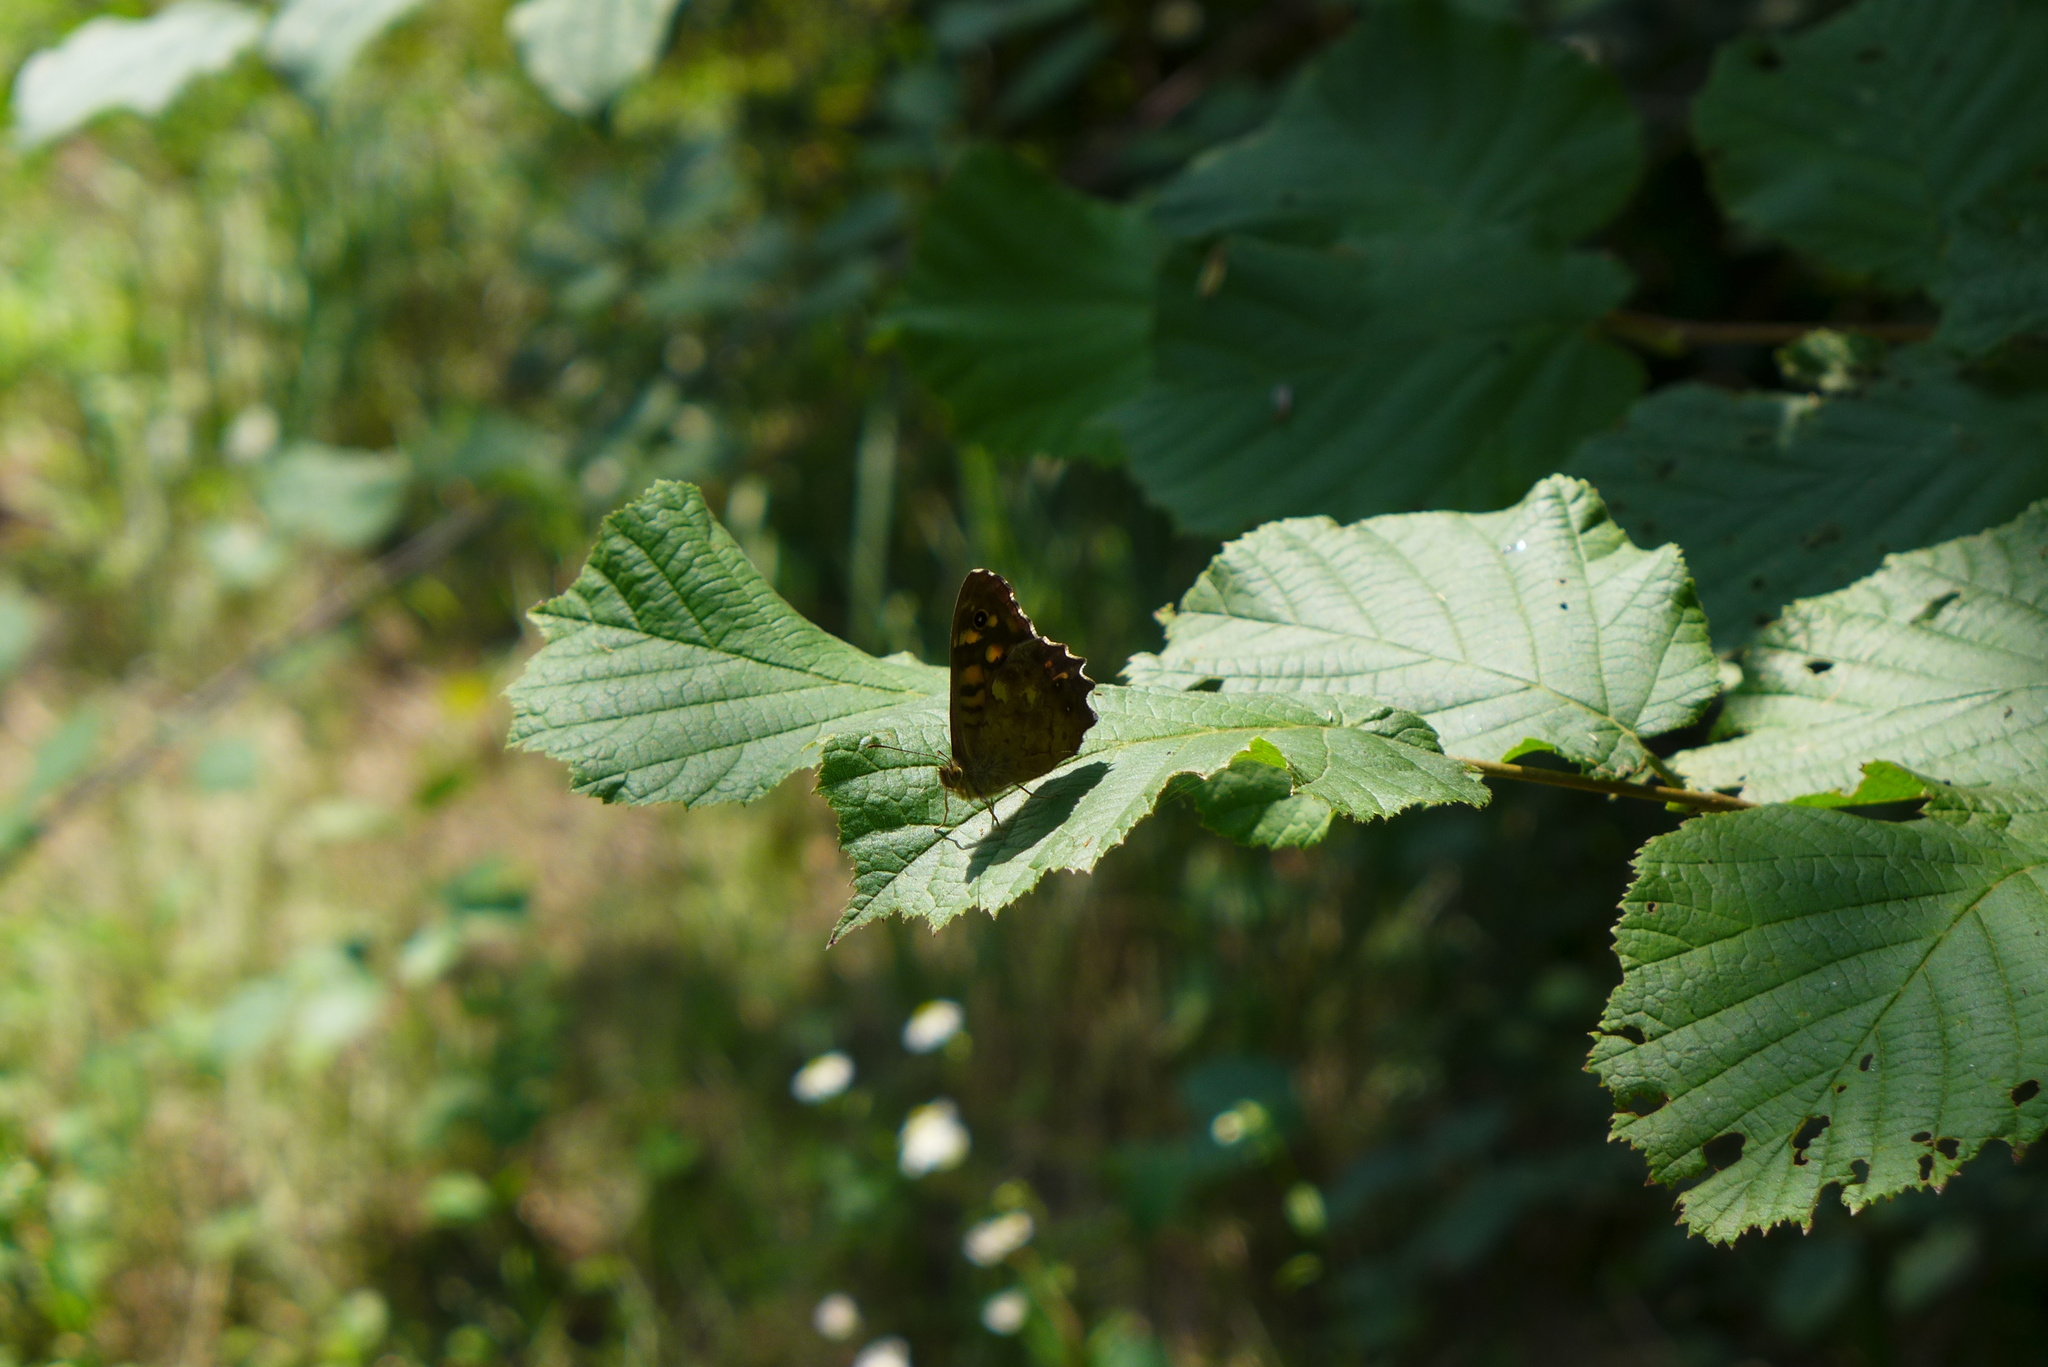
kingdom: Animalia
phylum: Arthropoda
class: Insecta
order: Lepidoptera
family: Nymphalidae
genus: Pararge
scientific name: Pararge aegeria
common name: Speckled wood
